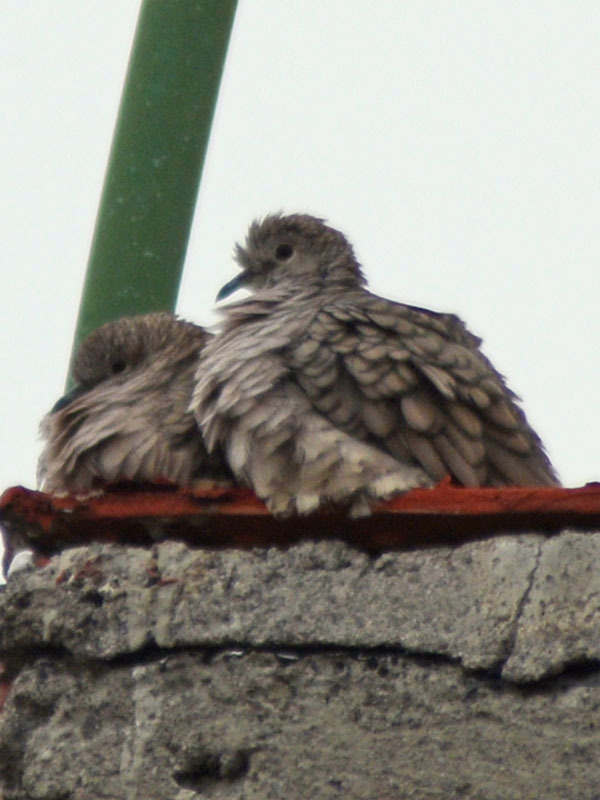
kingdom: Animalia
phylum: Chordata
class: Aves
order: Columbiformes
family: Columbidae
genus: Columbina
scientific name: Columbina inca
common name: Inca dove
